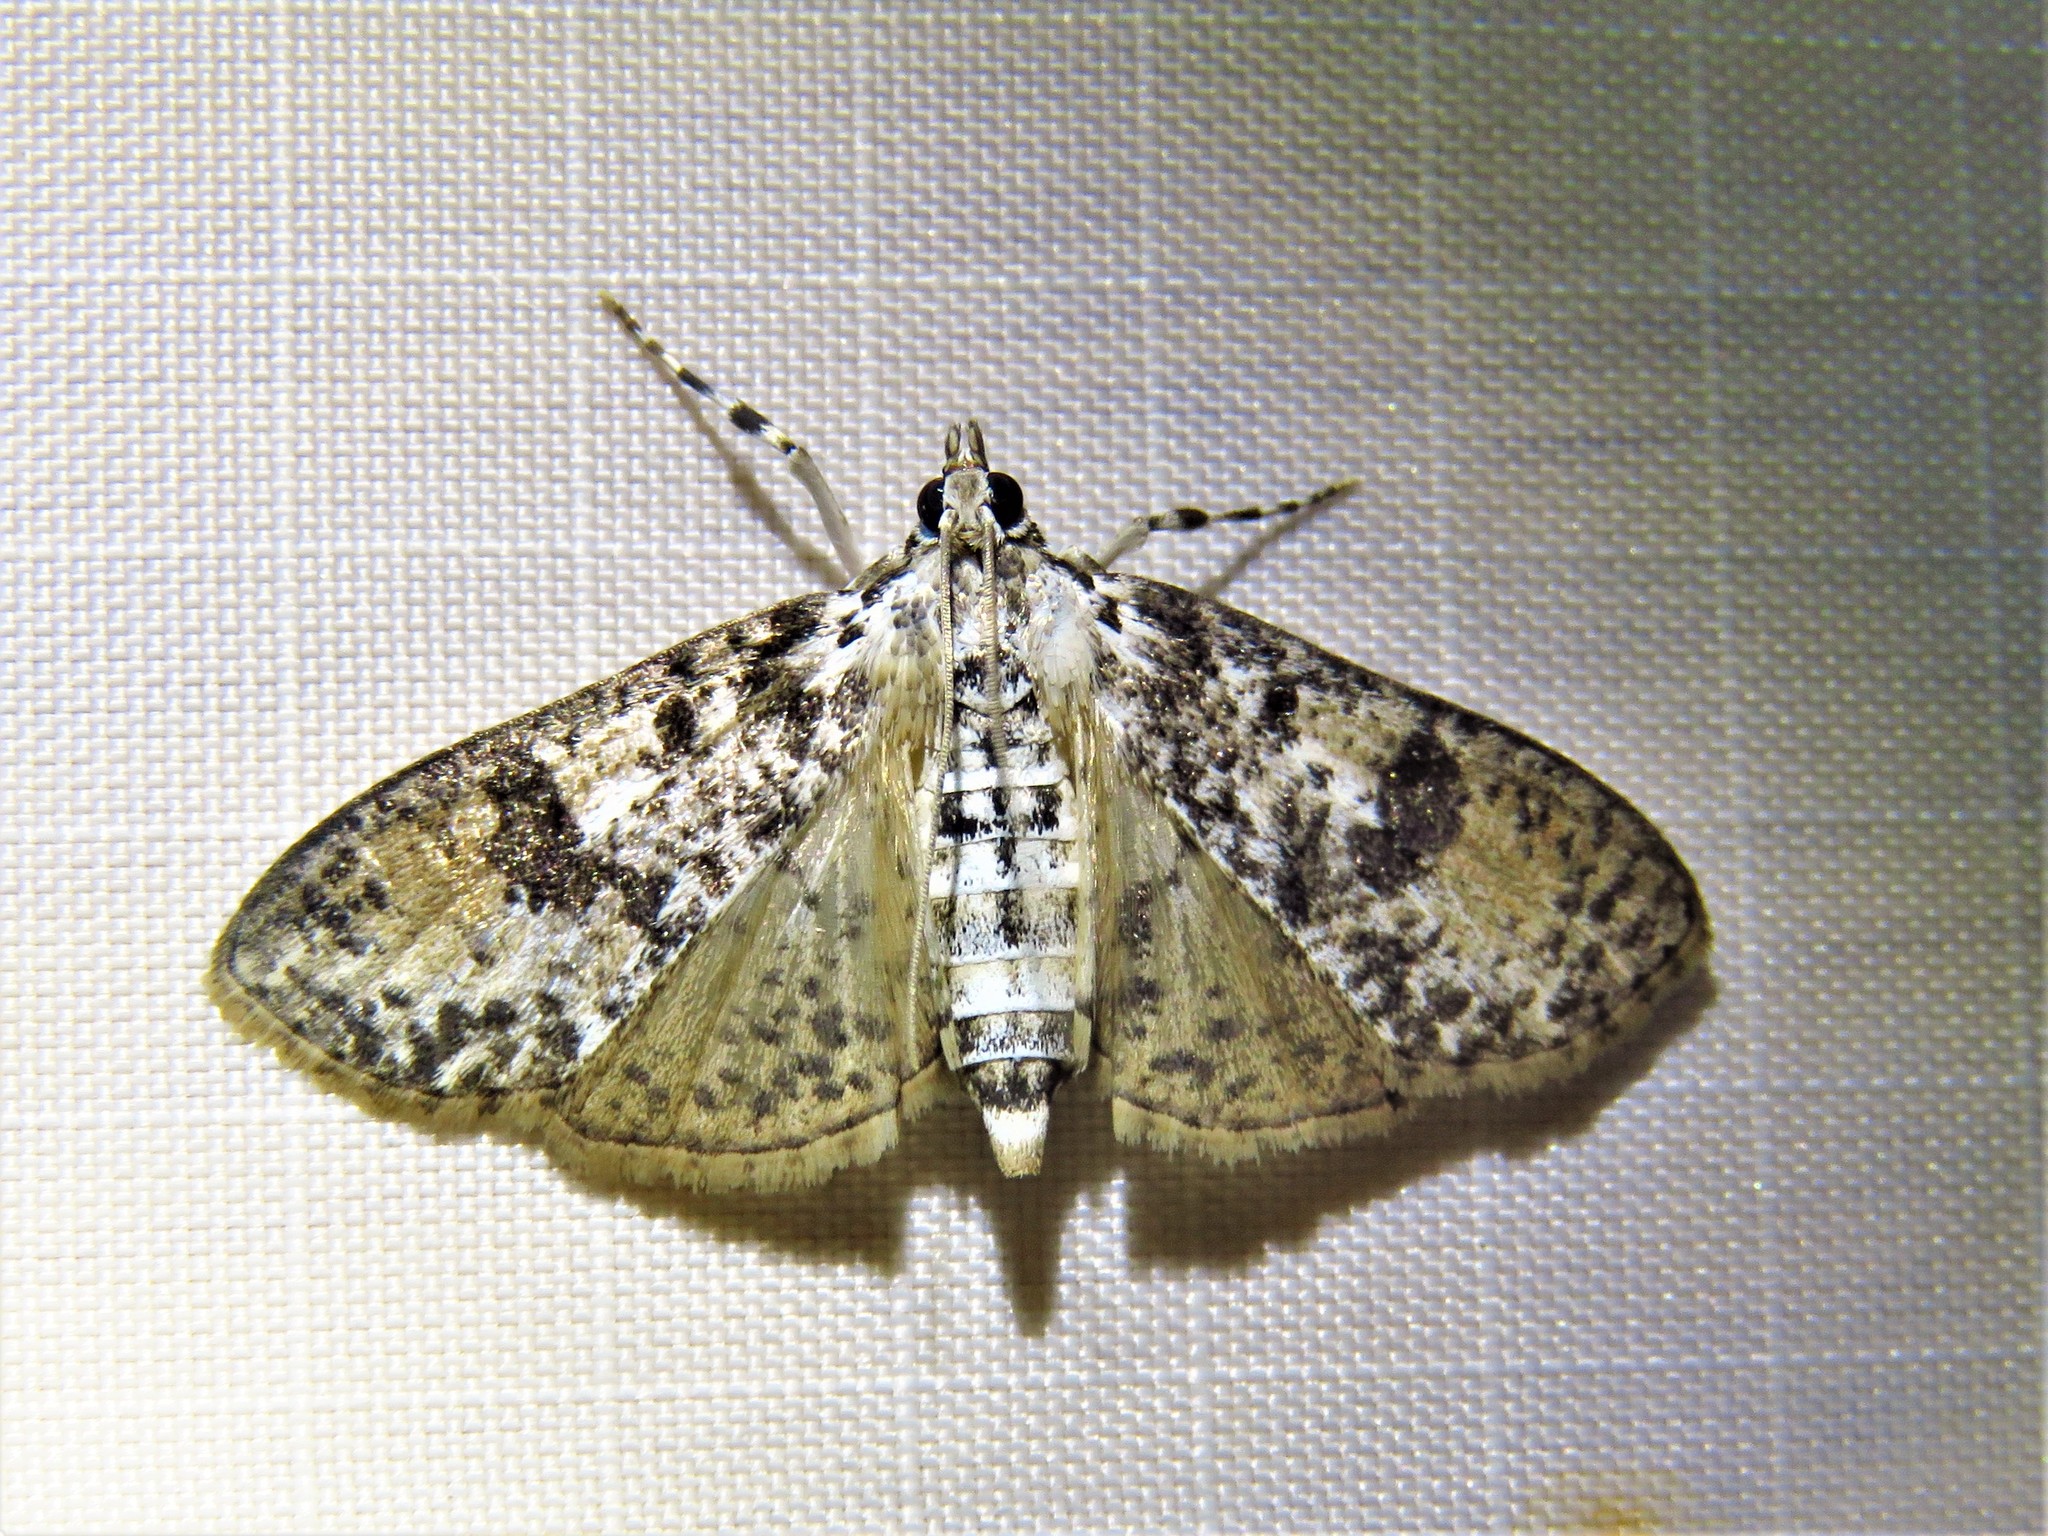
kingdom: Animalia
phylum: Arthropoda
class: Insecta
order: Lepidoptera
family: Crambidae
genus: Palpita
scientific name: Palpita magniferalis
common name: Splendid palpita moth
